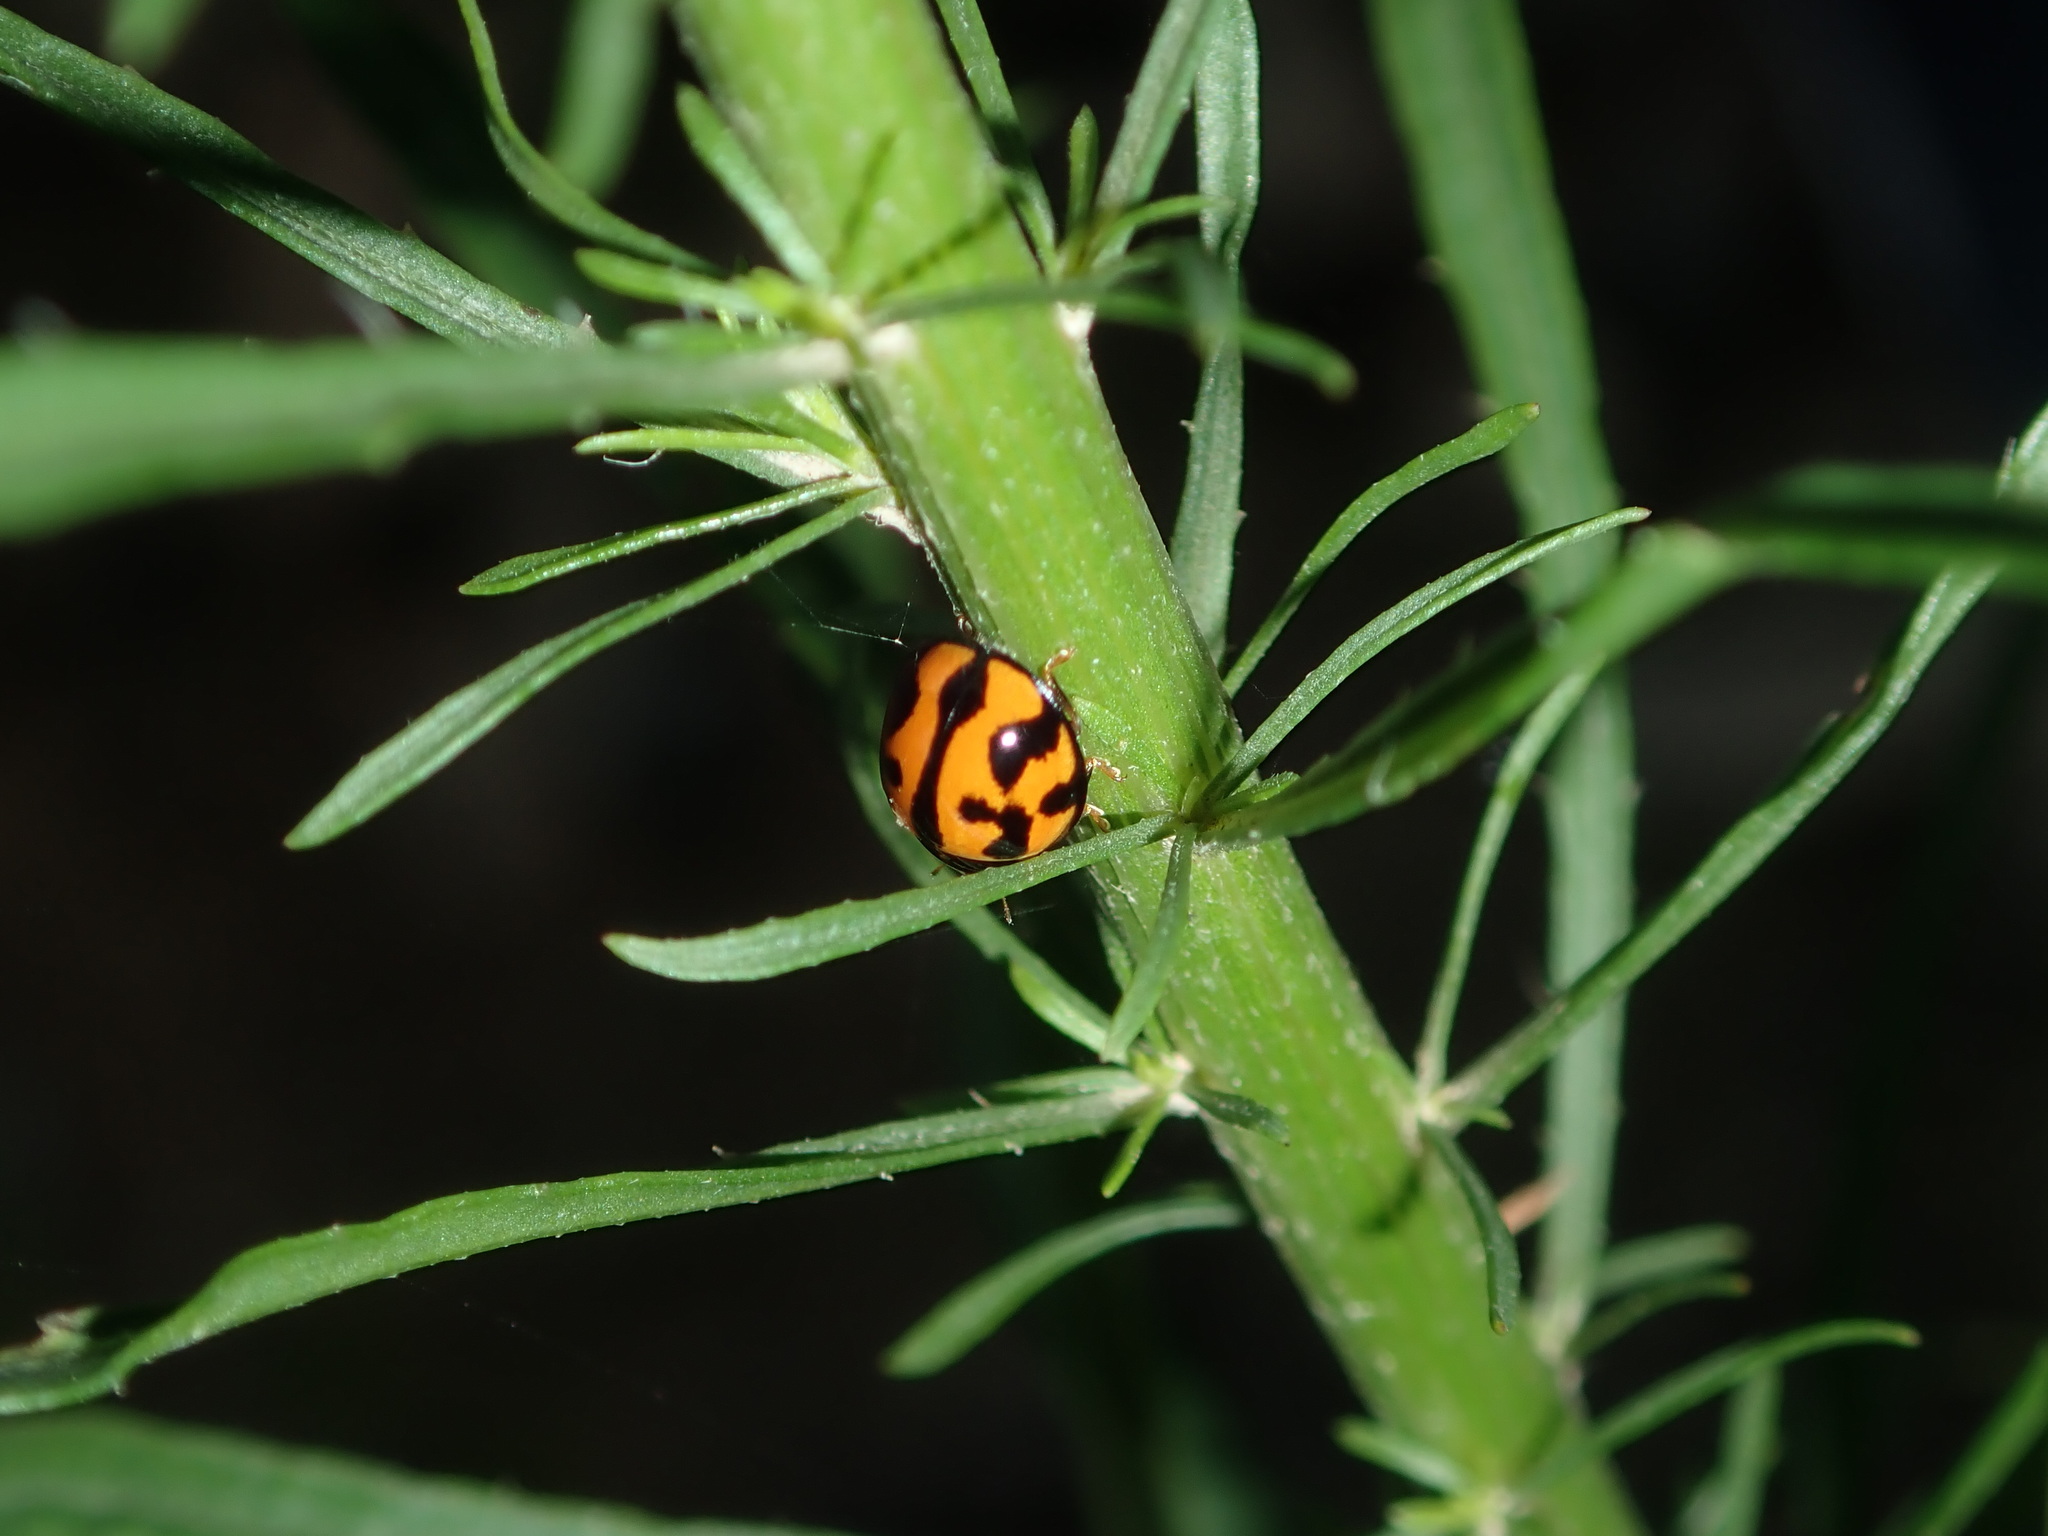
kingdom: Animalia
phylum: Arthropoda
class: Insecta
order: Coleoptera
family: Coccinellidae
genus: Coelophora
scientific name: Coelophora inaequalis
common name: Common australian lady beetle
